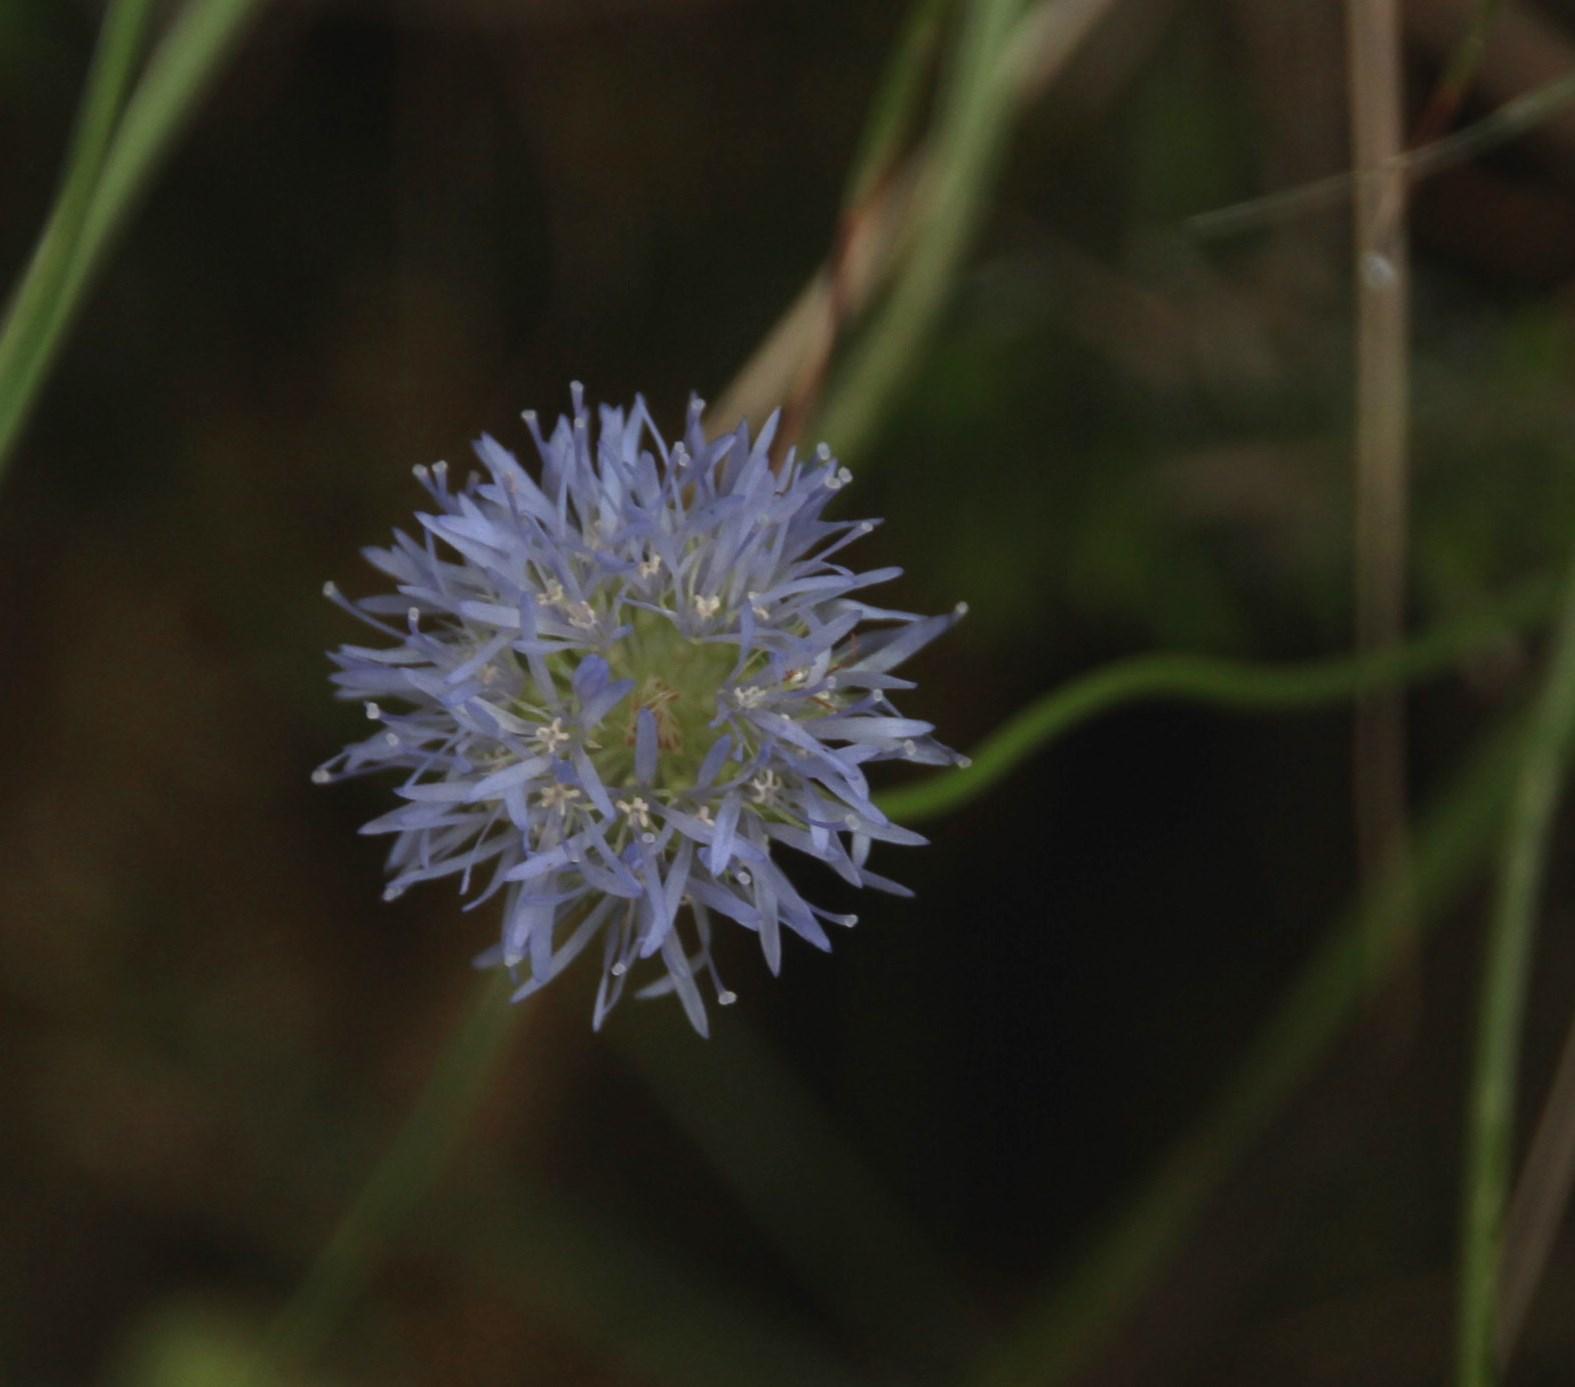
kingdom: Plantae
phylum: Tracheophyta
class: Magnoliopsida
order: Asterales
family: Campanulaceae
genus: Jasione
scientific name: Jasione montana
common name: Sheep's-bit
